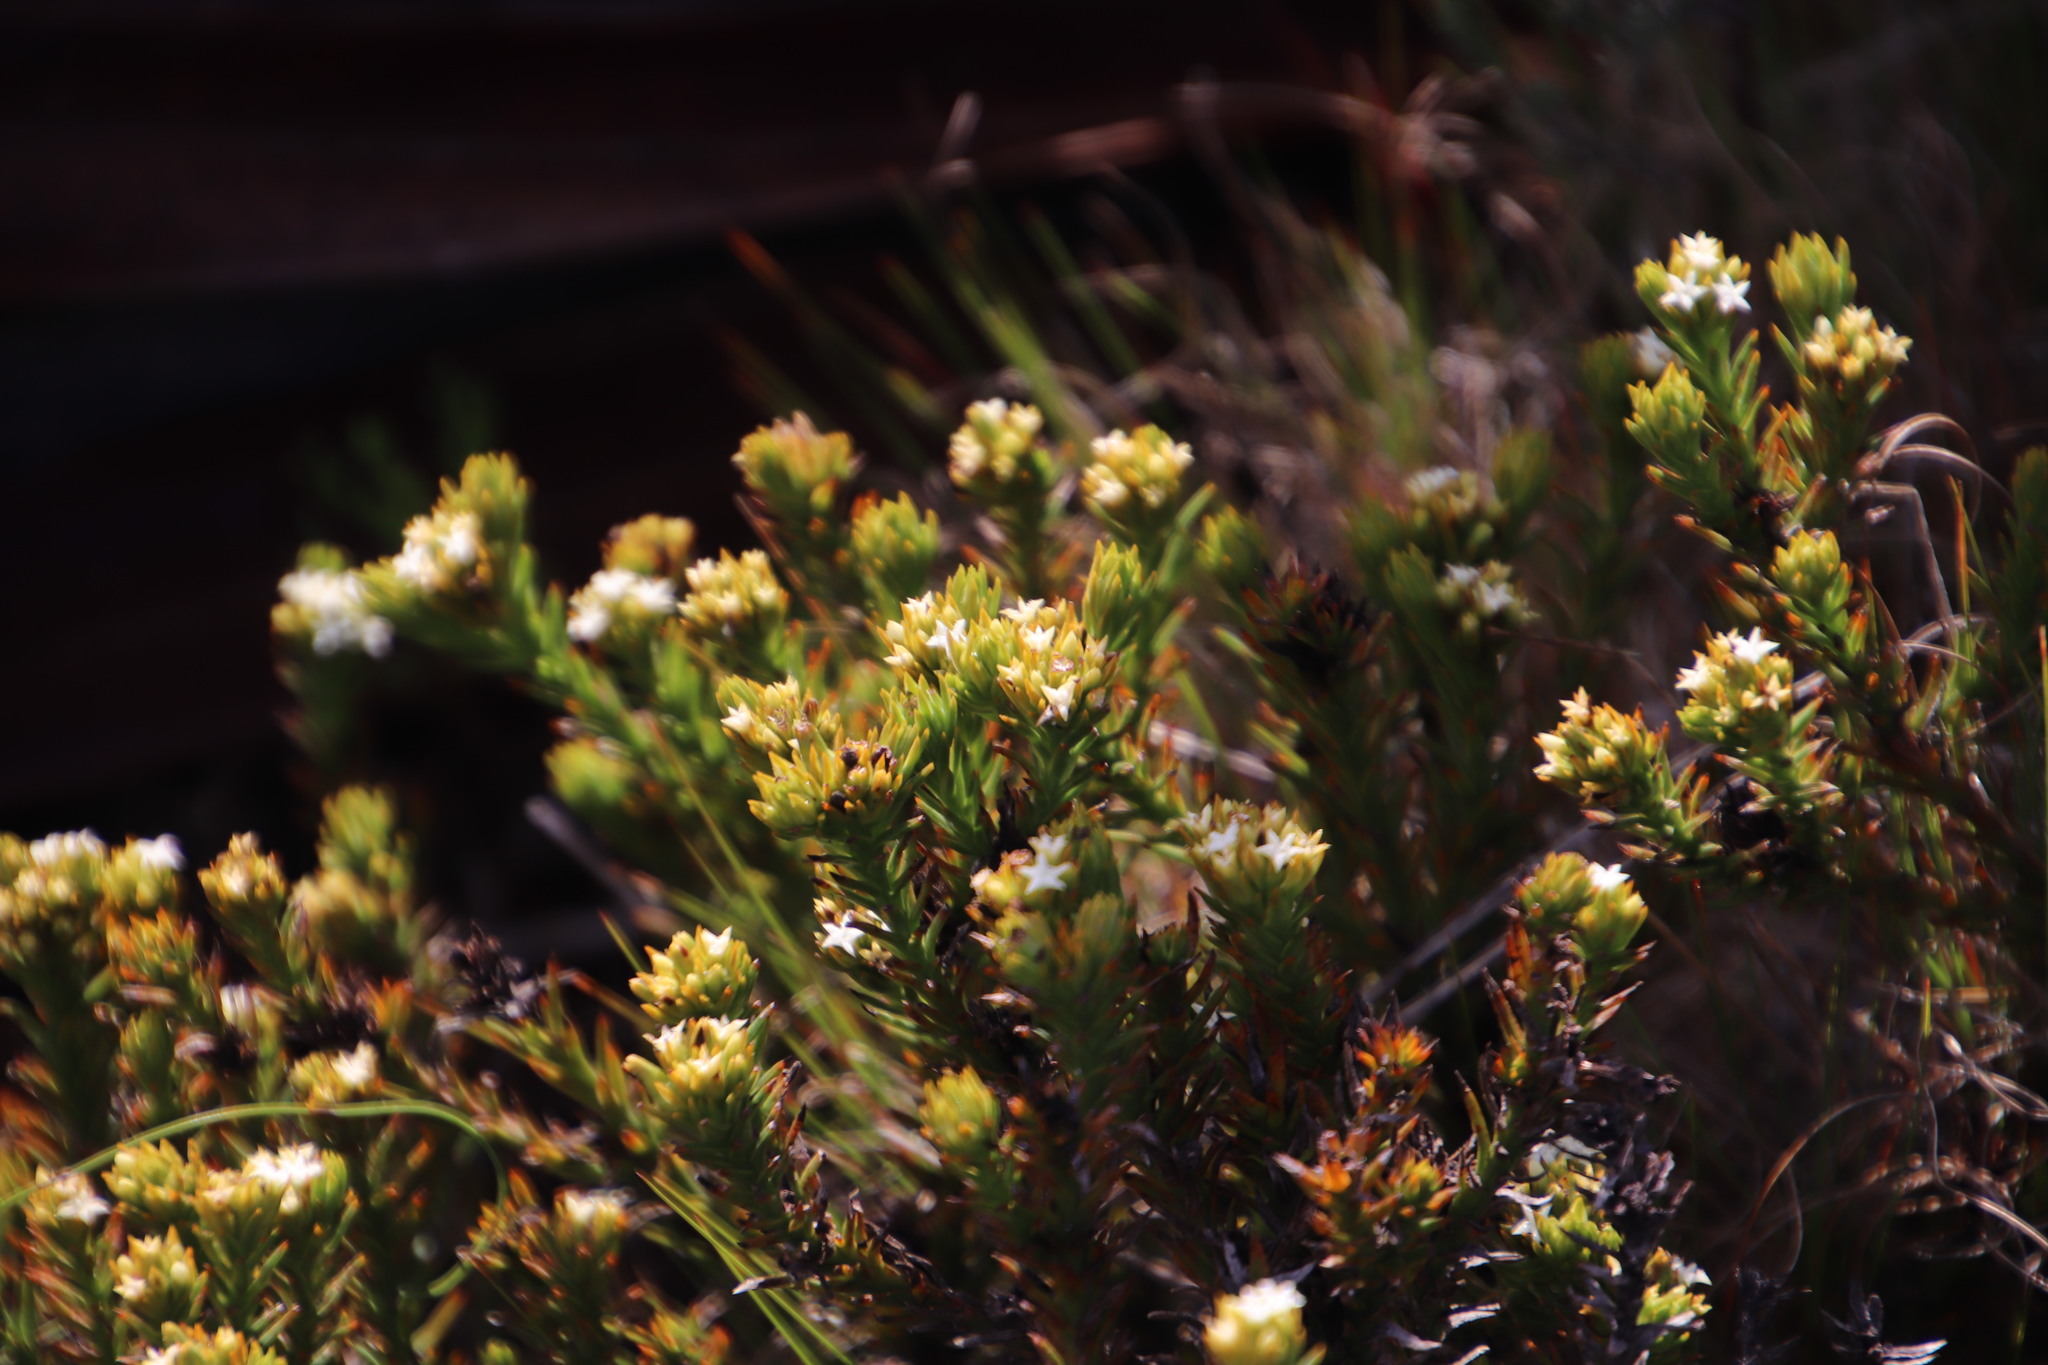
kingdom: Plantae
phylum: Tracheophyta
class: Magnoliopsida
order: Santalales
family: Thesiaceae
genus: Thesium
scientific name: Thesium capitatum
